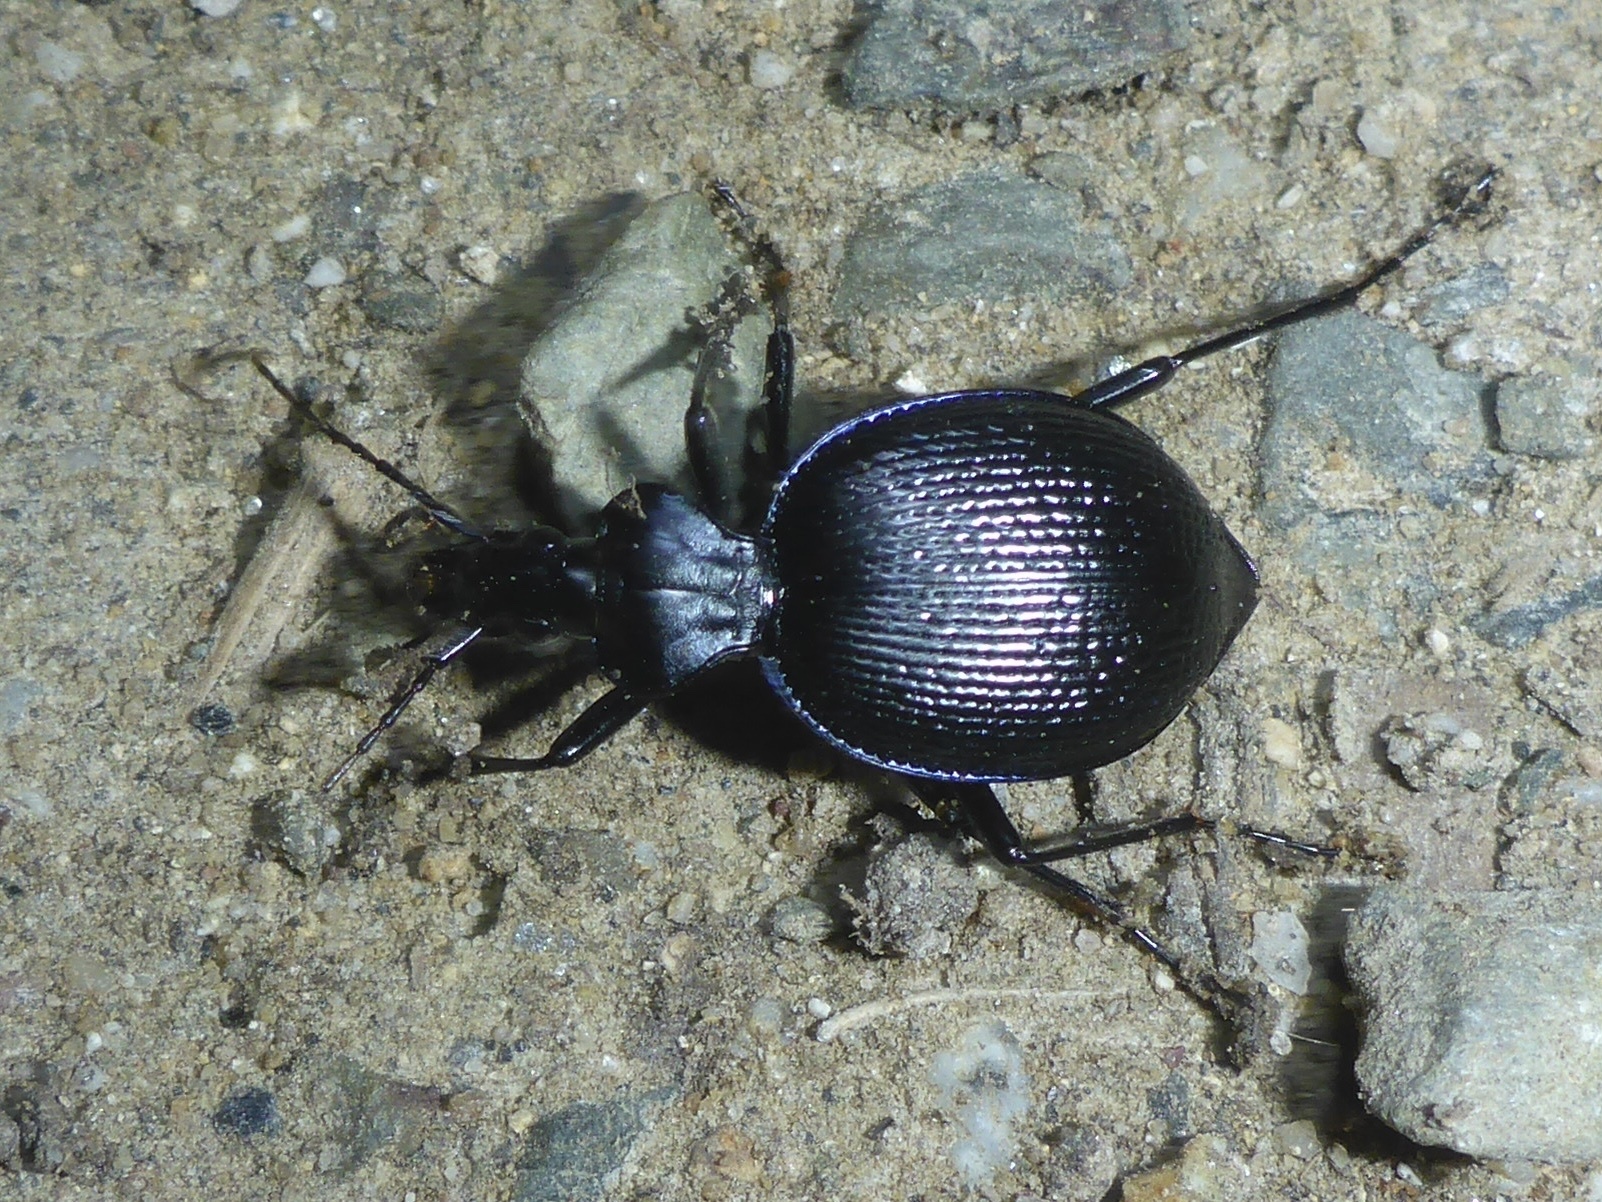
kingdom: Animalia
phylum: Arthropoda
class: Insecta
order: Coleoptera
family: Carabidae
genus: Scaphinotus
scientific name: Scaphinotus interruptus
